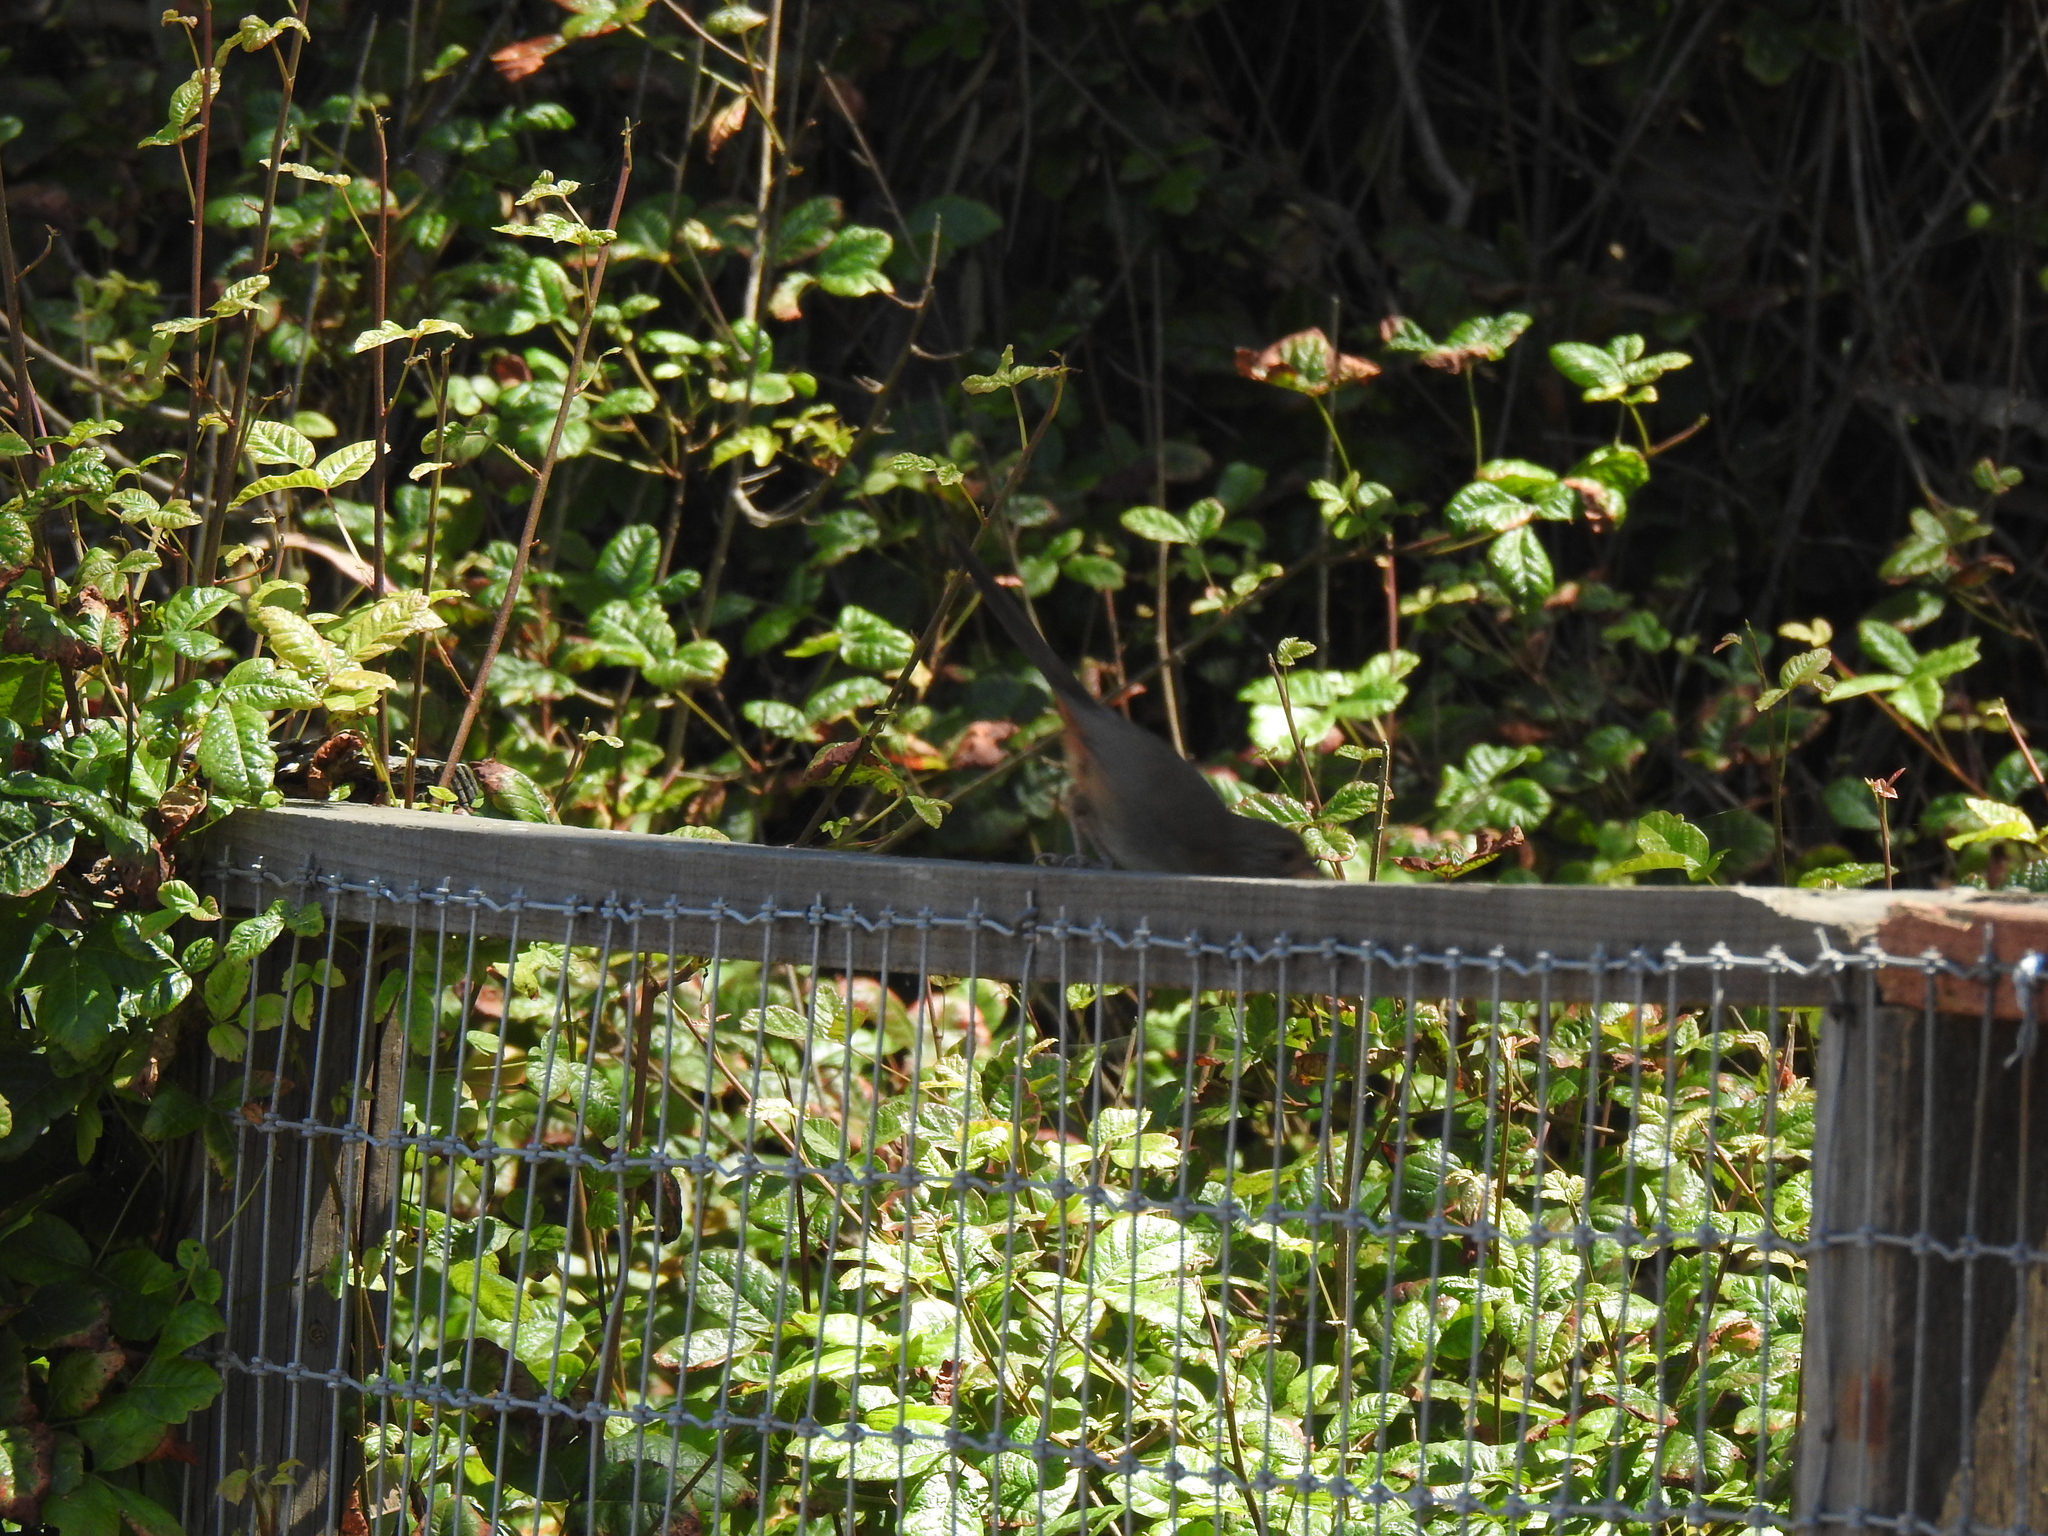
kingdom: Animalia
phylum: Chordata
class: Aves
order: Passeriformes
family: Passerellidae
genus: Melozone
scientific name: Melozone crissalis
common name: California towhee
